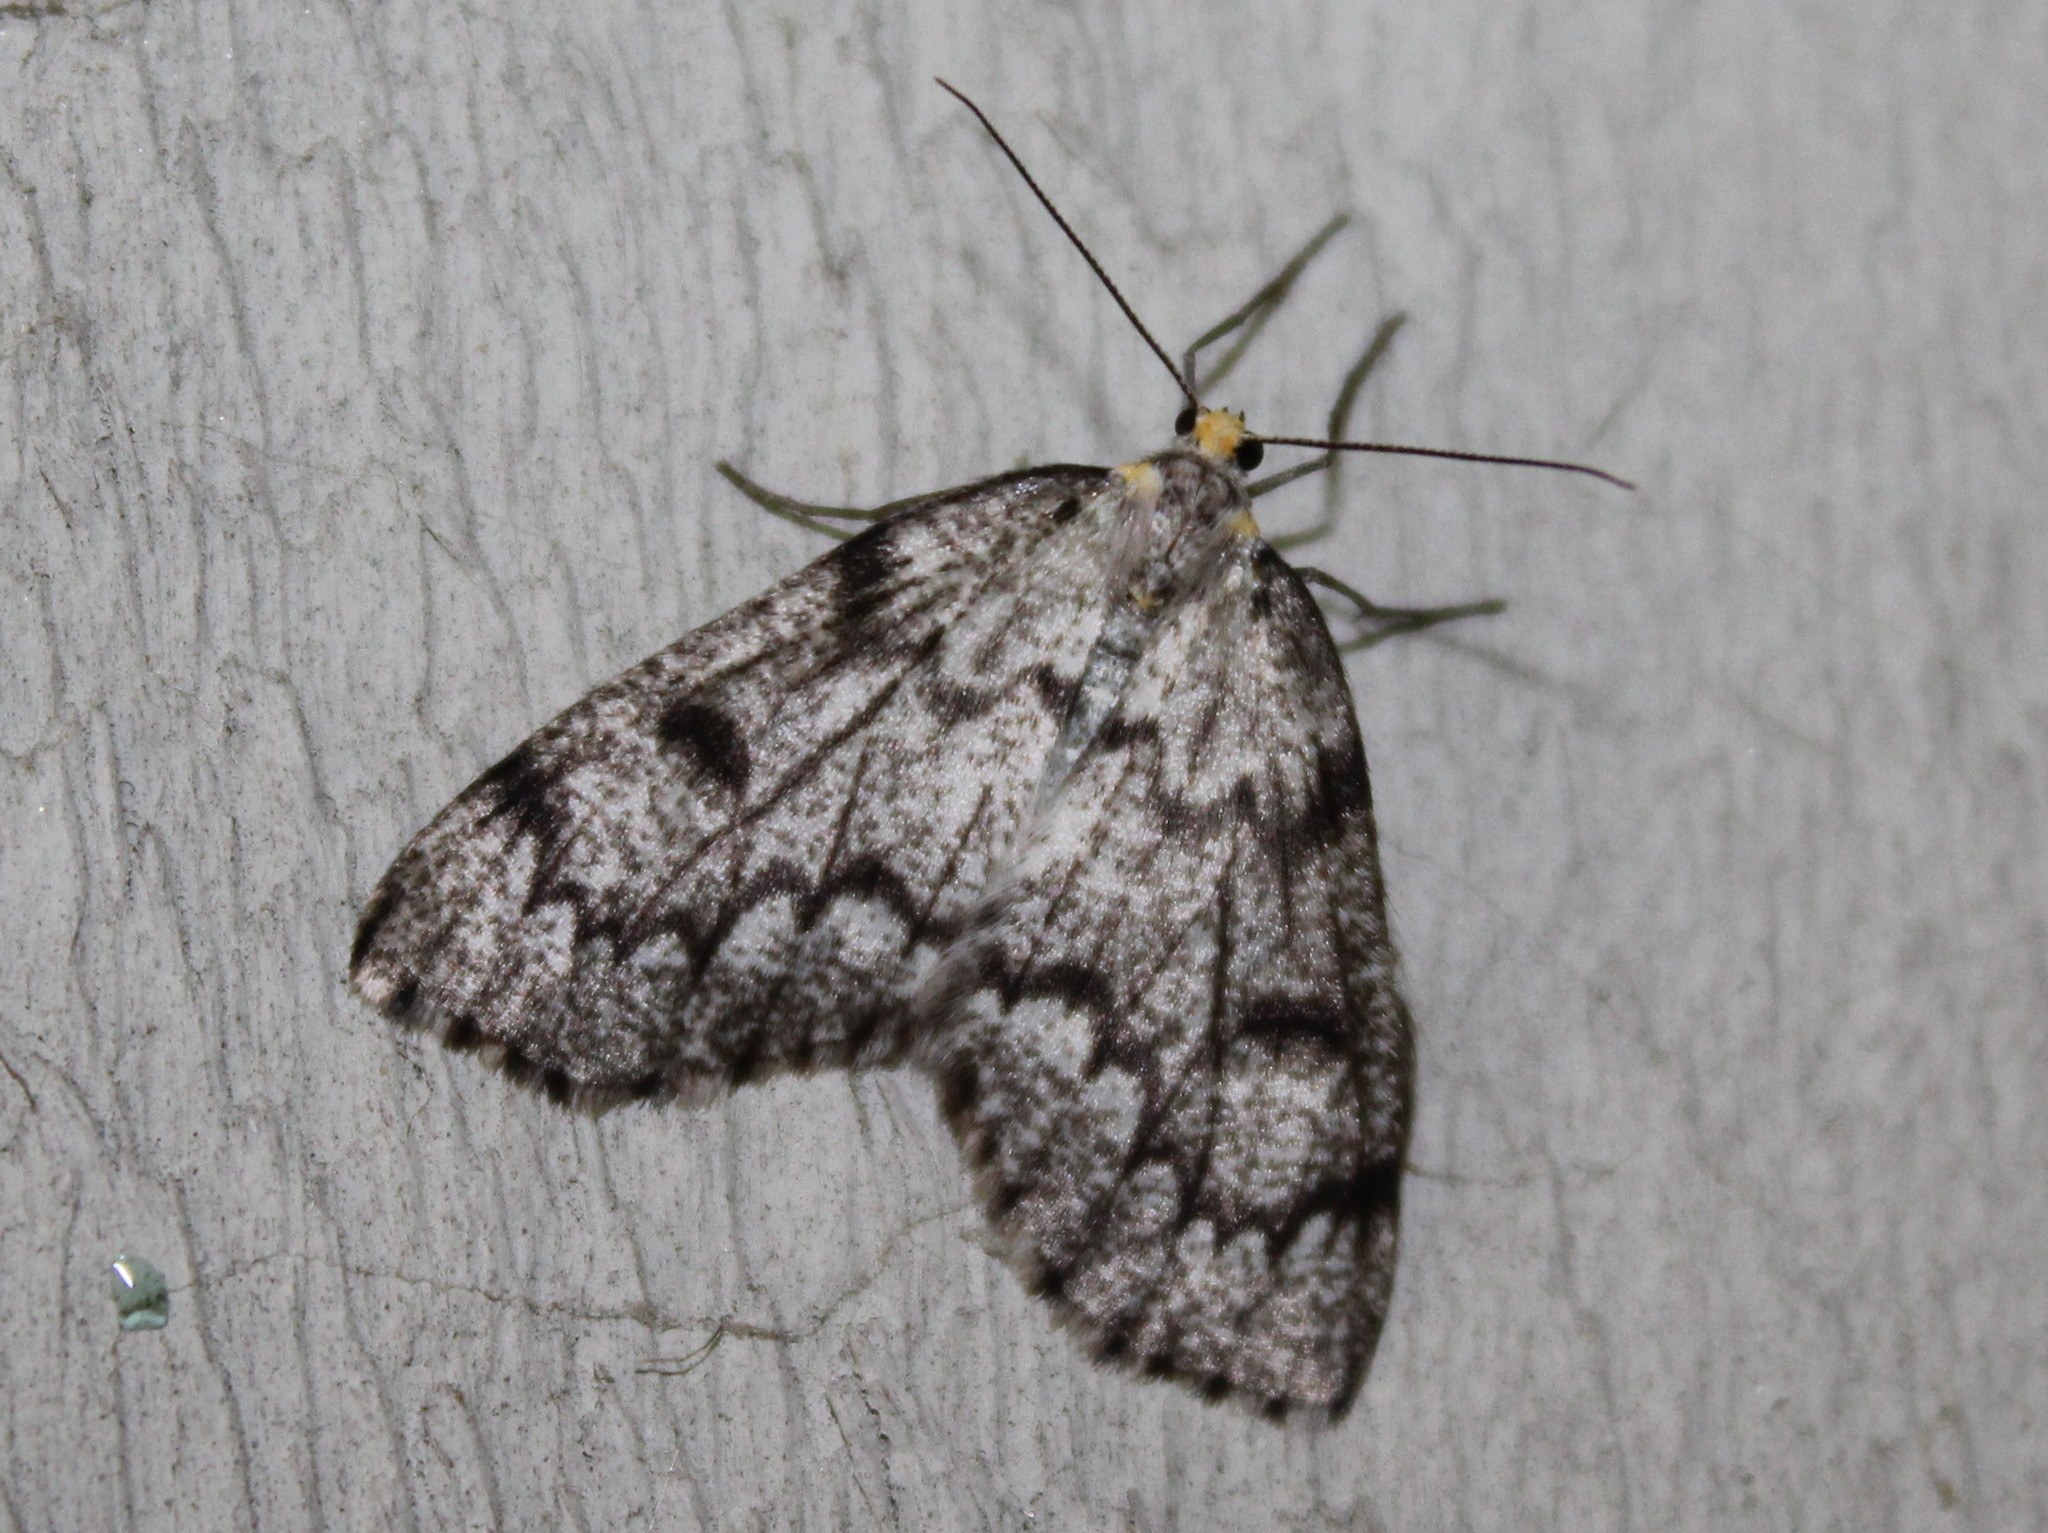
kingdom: Animalia
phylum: Arthropoda
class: Insecta
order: Lepidoptera
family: Geometridae
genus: Nepytia
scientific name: Nepytia canosaria
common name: False hemlock looper
